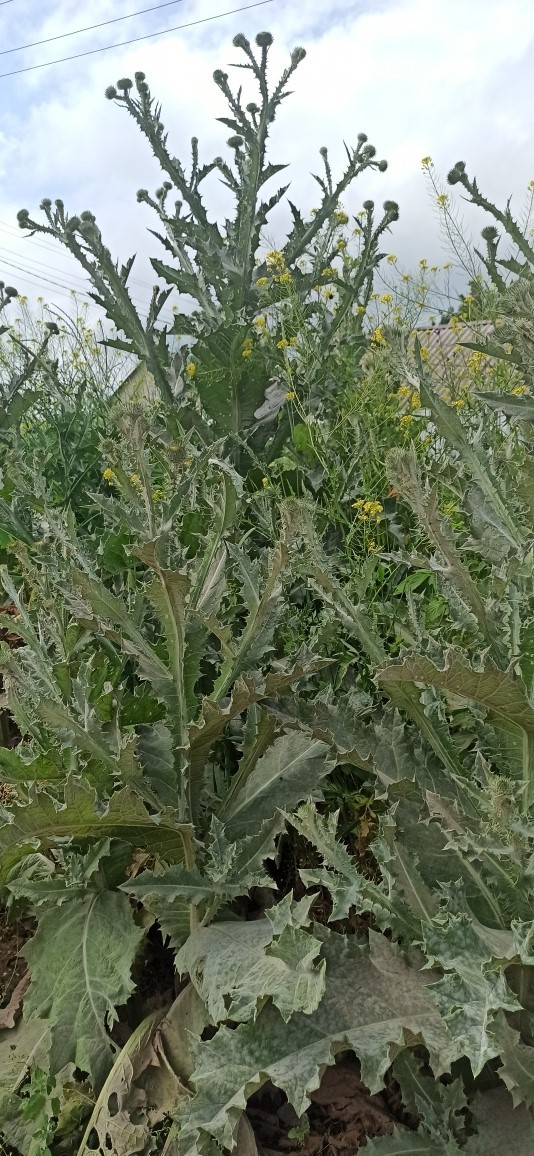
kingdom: Plantae
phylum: Tracheophyta
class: Magnoliopsida
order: Asterales
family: Asteraceae
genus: Onopordum
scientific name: Onopordum acanthium
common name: Scotch thistle
